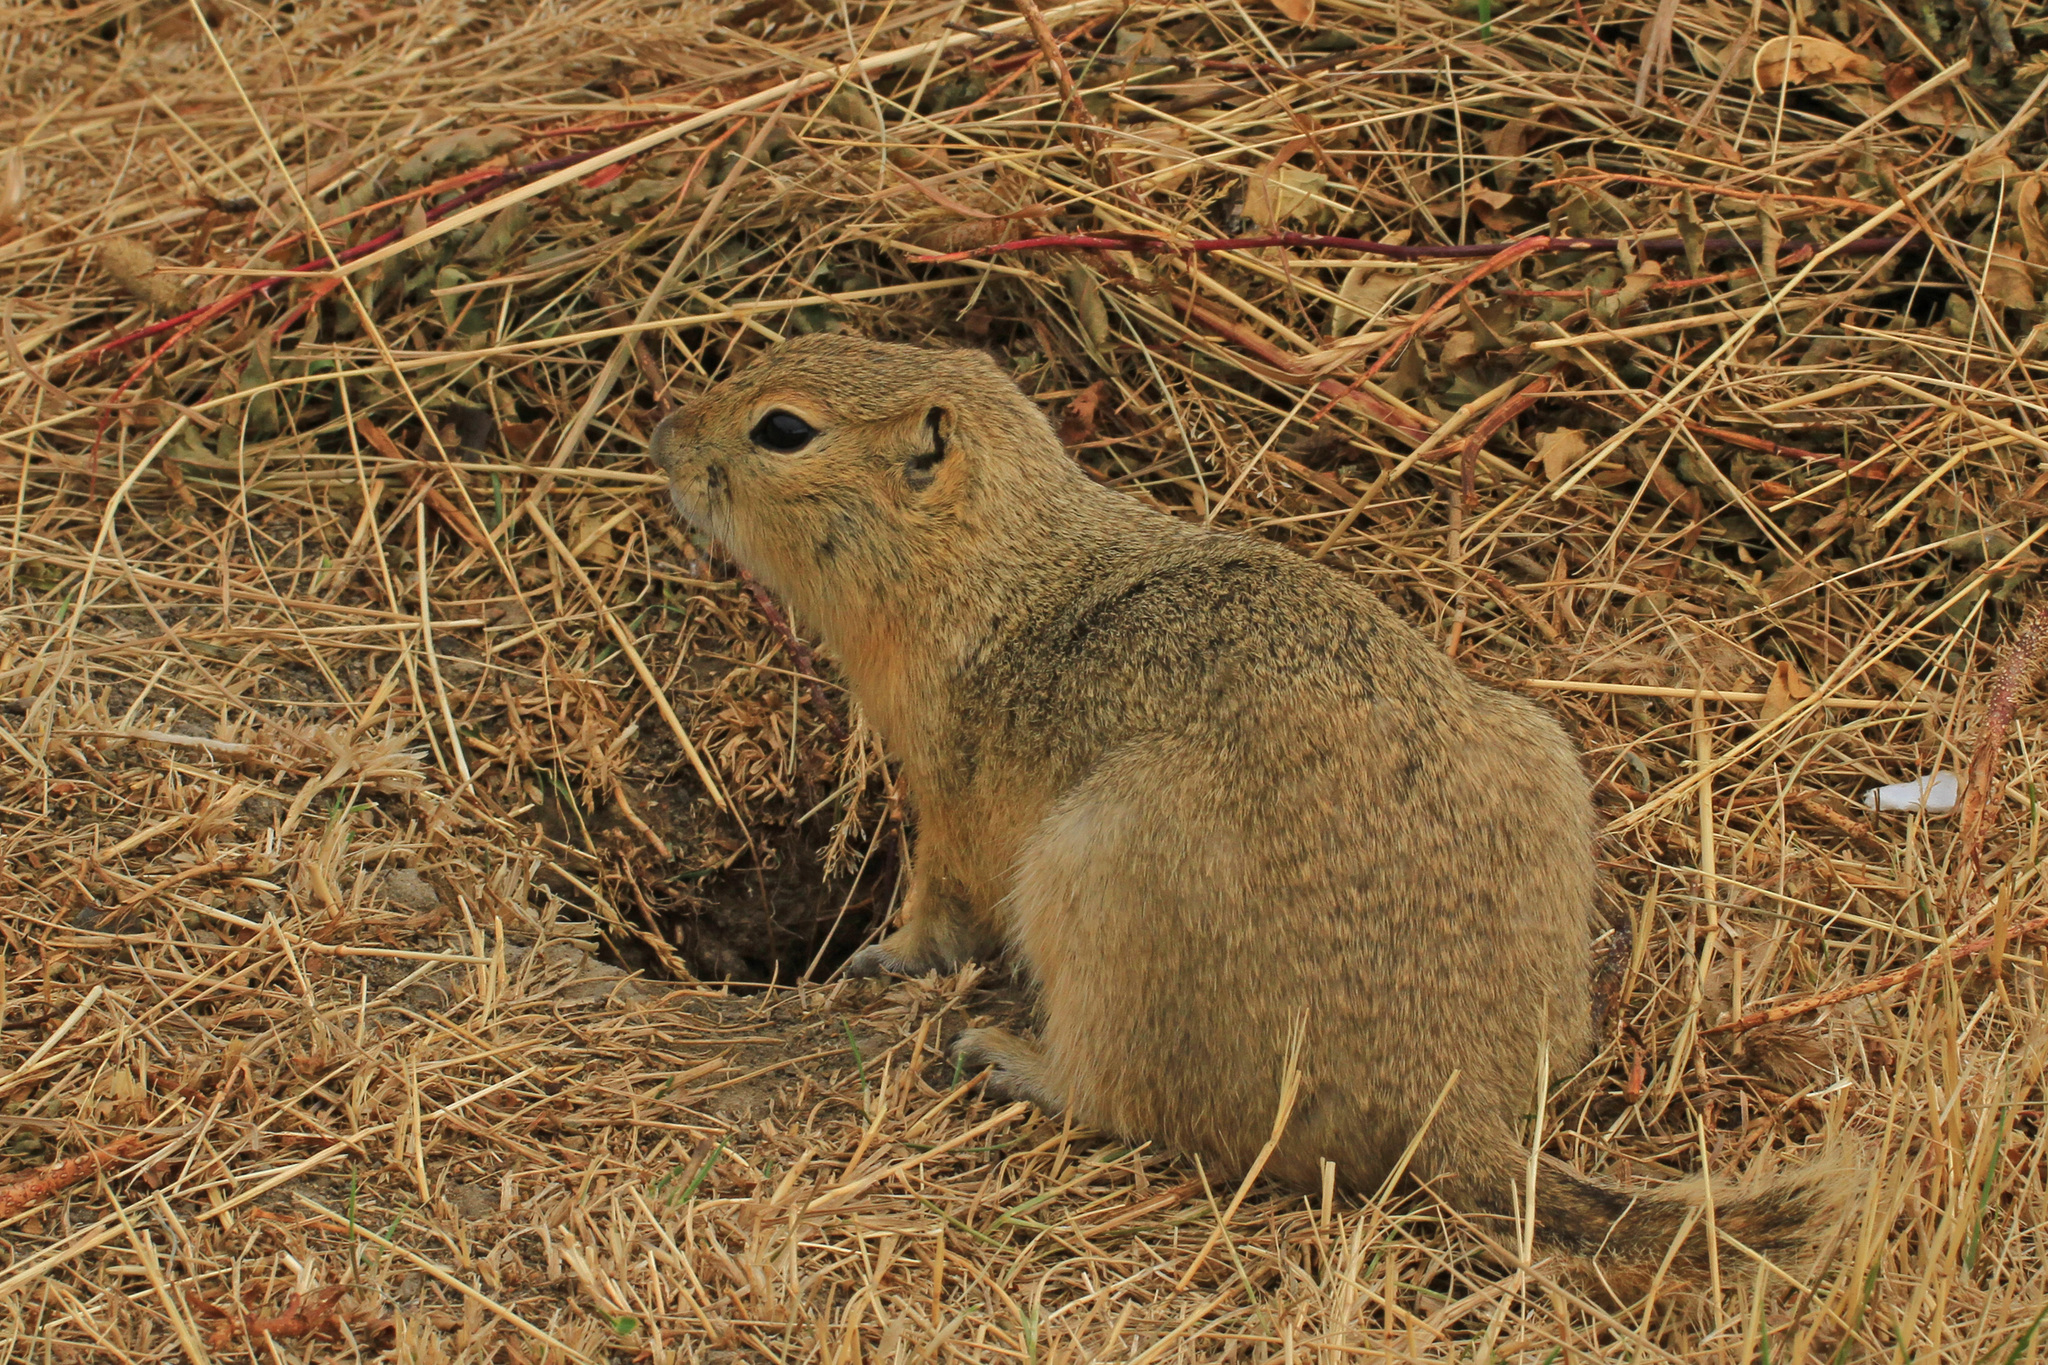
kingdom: Animalia
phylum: Chordata
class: Mammalia
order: Rodentia
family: Sciuridae
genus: Urocitellus
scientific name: Urocitellus richardsonii
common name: Richardson's ground squirrel
